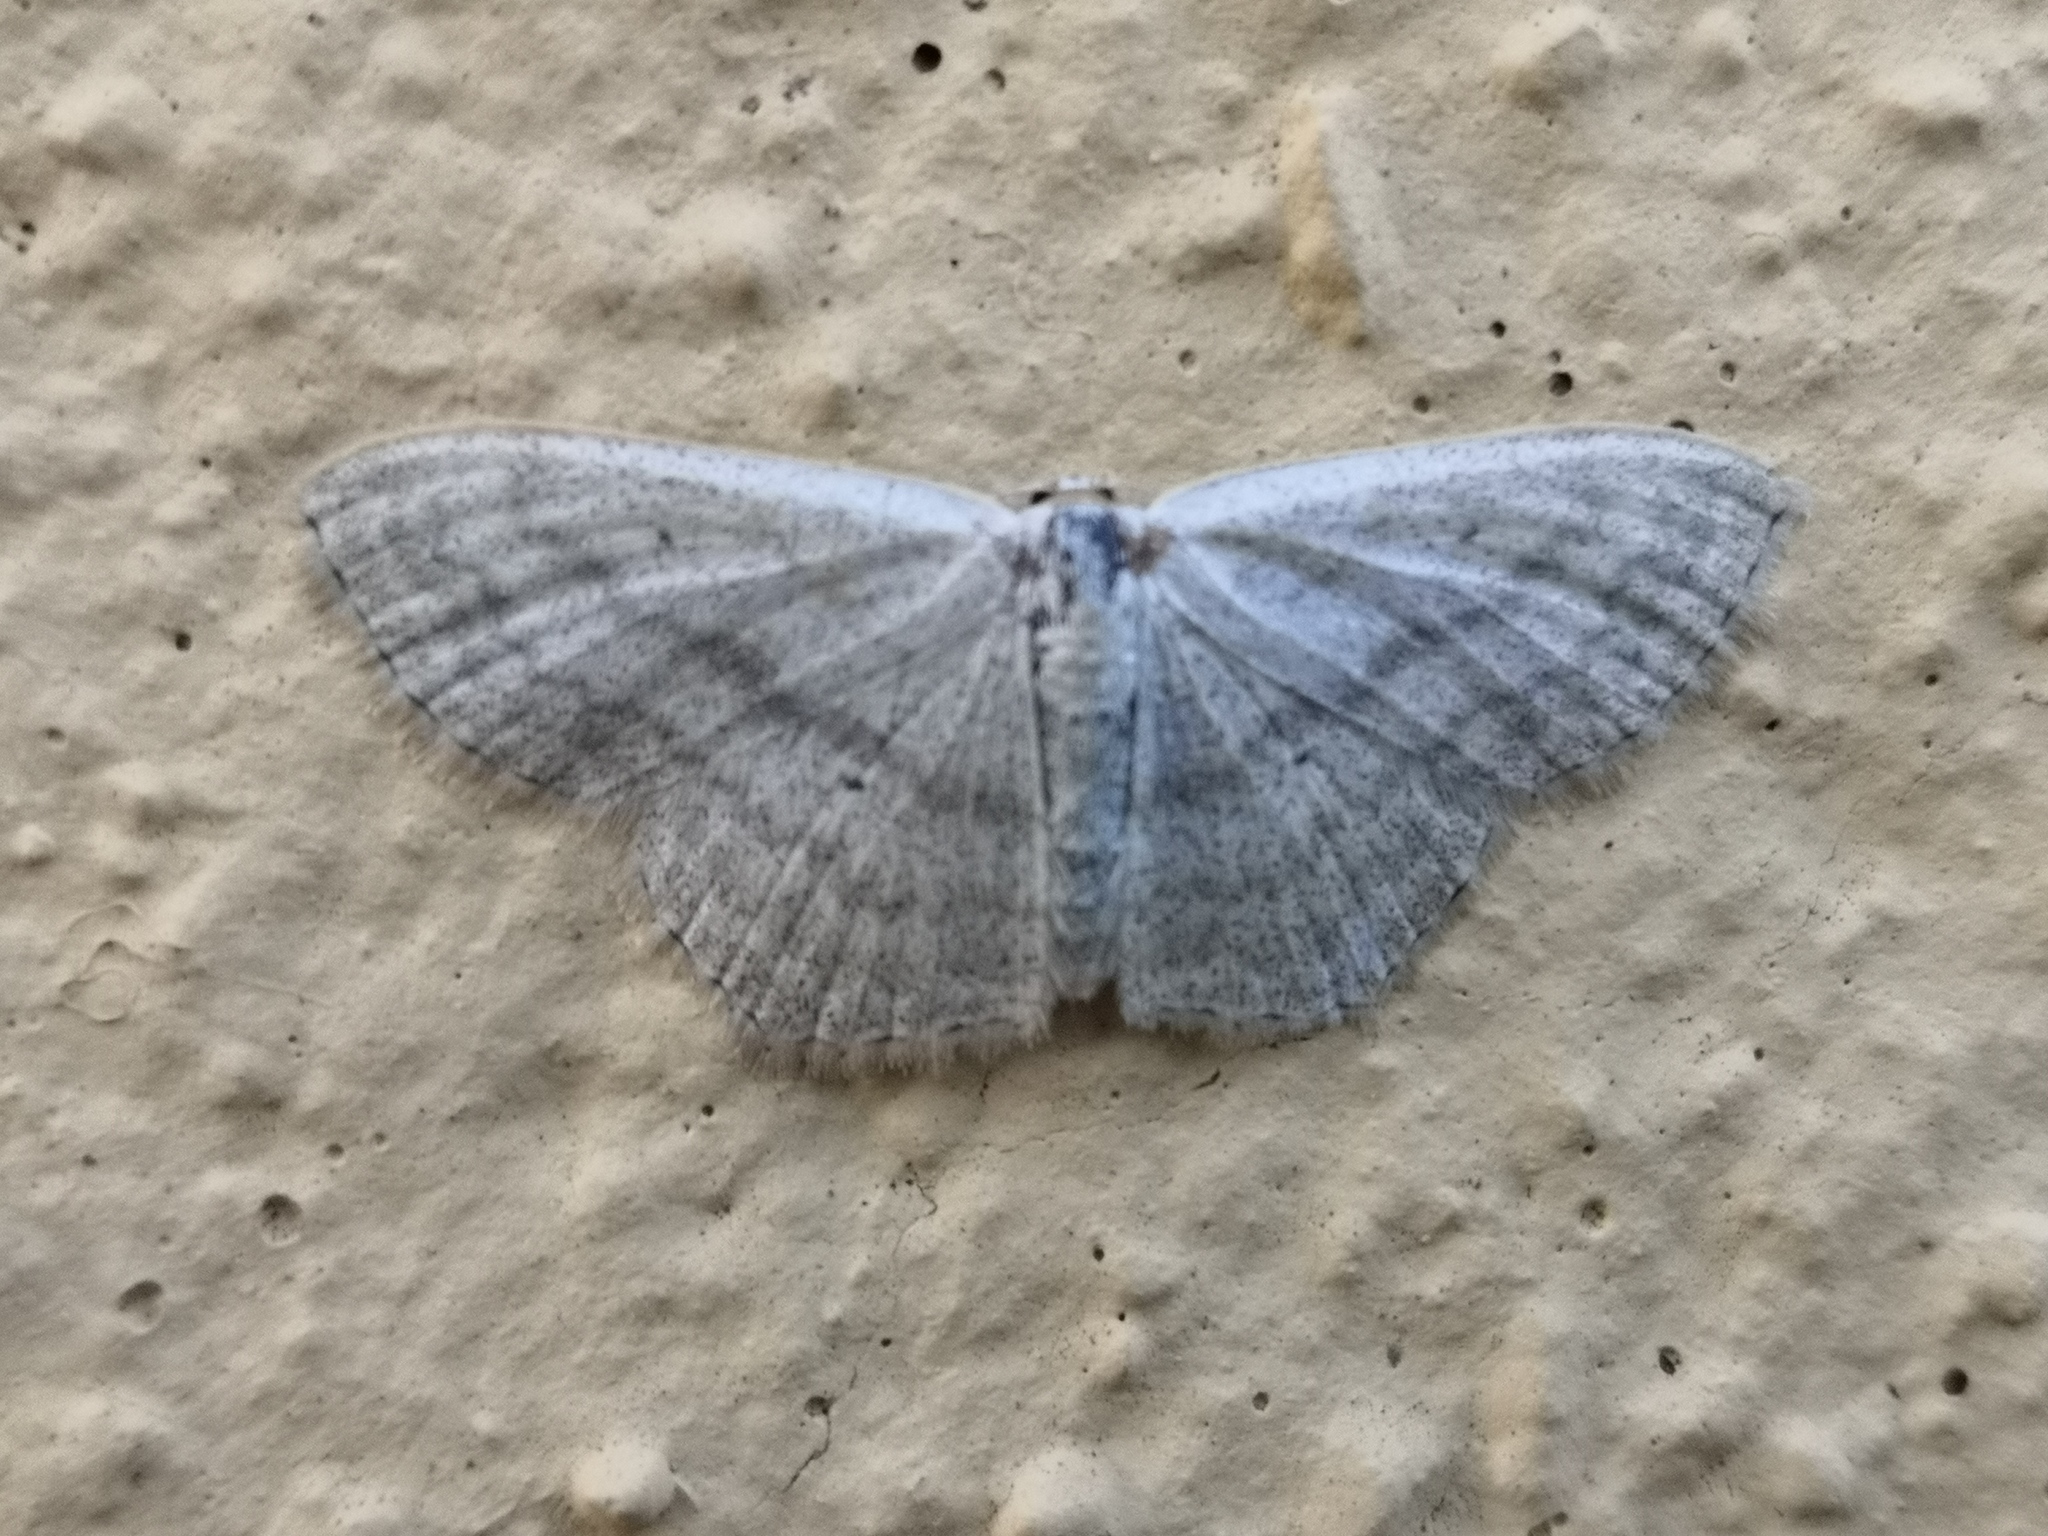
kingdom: Animalia
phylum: Arthropoda
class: Insecta
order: Lepidoptera
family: Geometridae
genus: Scopula
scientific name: Scopula nigropunctata
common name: Sub-angled wave
